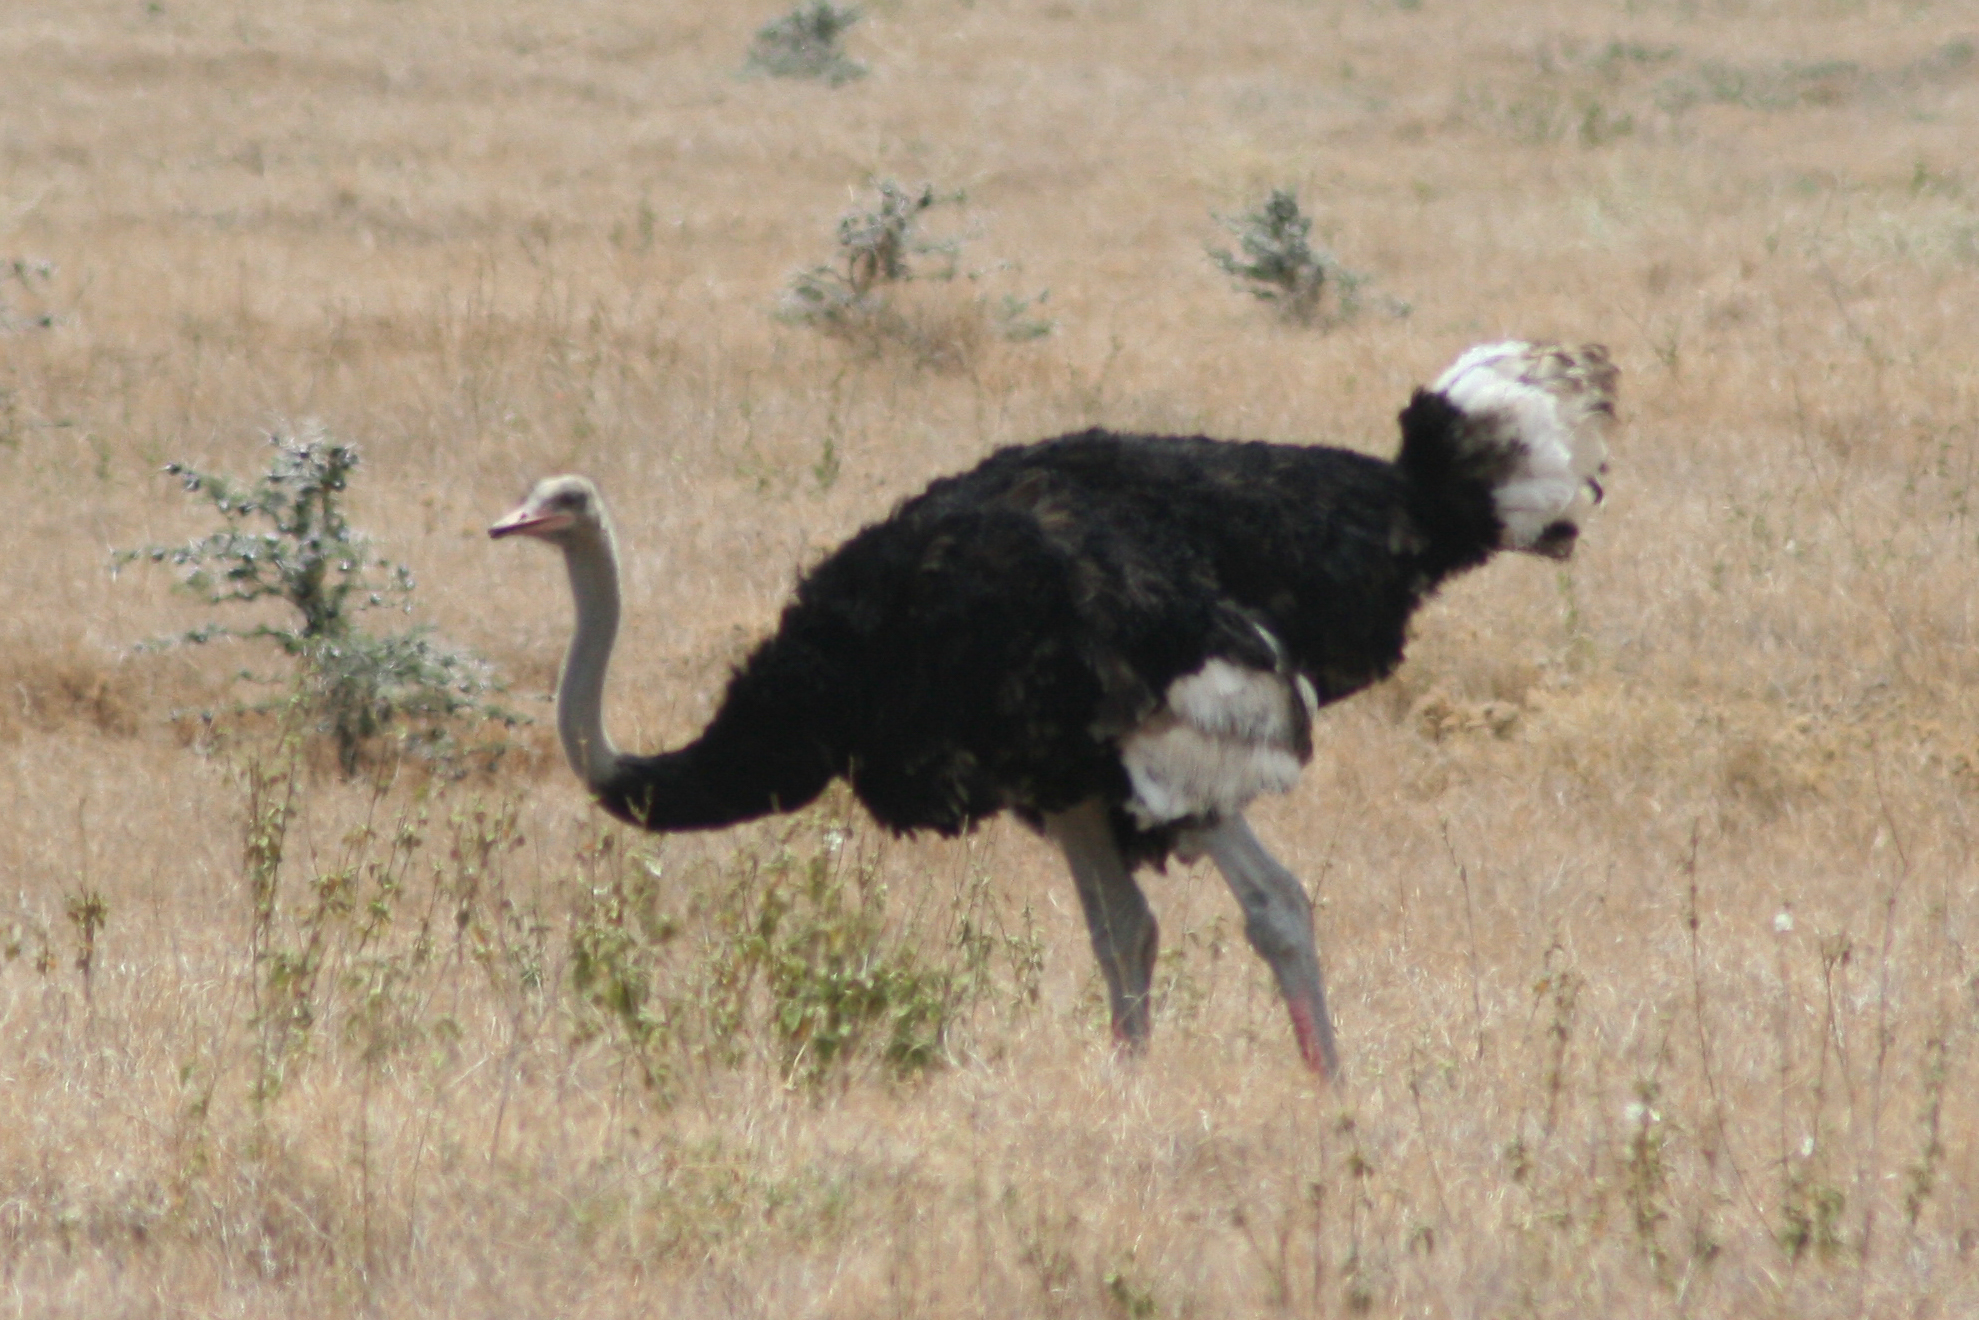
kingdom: Animalia
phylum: Chordata
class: Aves
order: Struthioniformes
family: Struthionidae
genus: Struthio
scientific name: Struthio molybdophanes
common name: Somali ostrich
